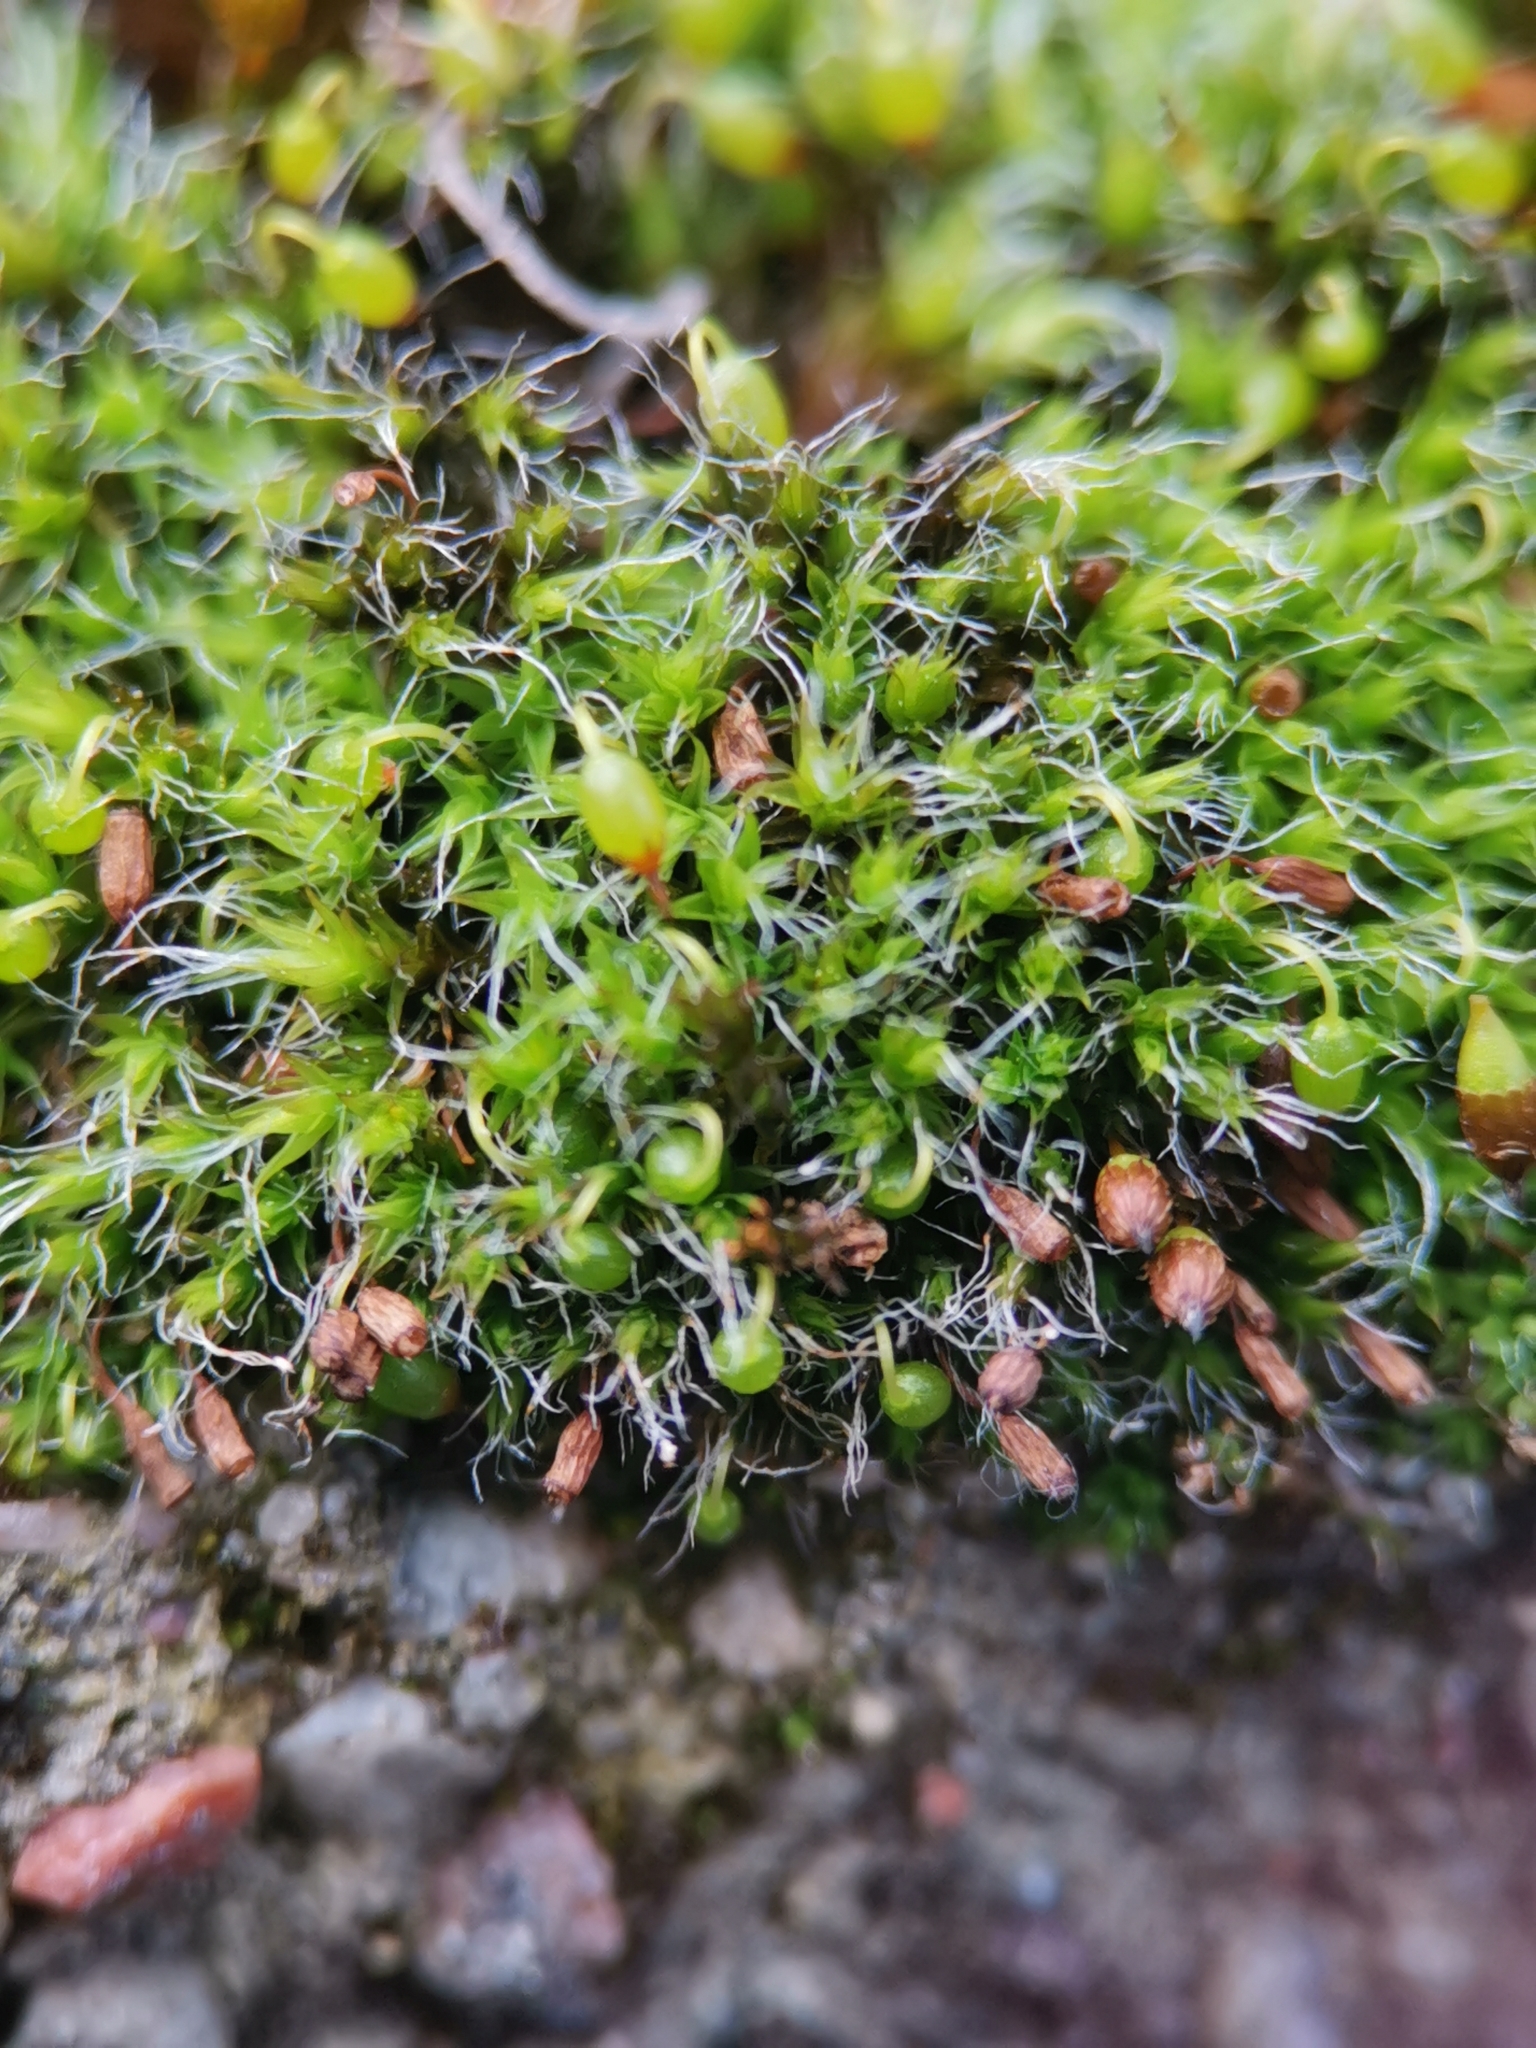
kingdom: Plantae
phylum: Bryophyta
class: Bryopsida
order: Grimmiales
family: Grimmiaceae
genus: Grimmia
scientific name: Grimmia pulvinata
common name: Grey-cushioned grimmia
